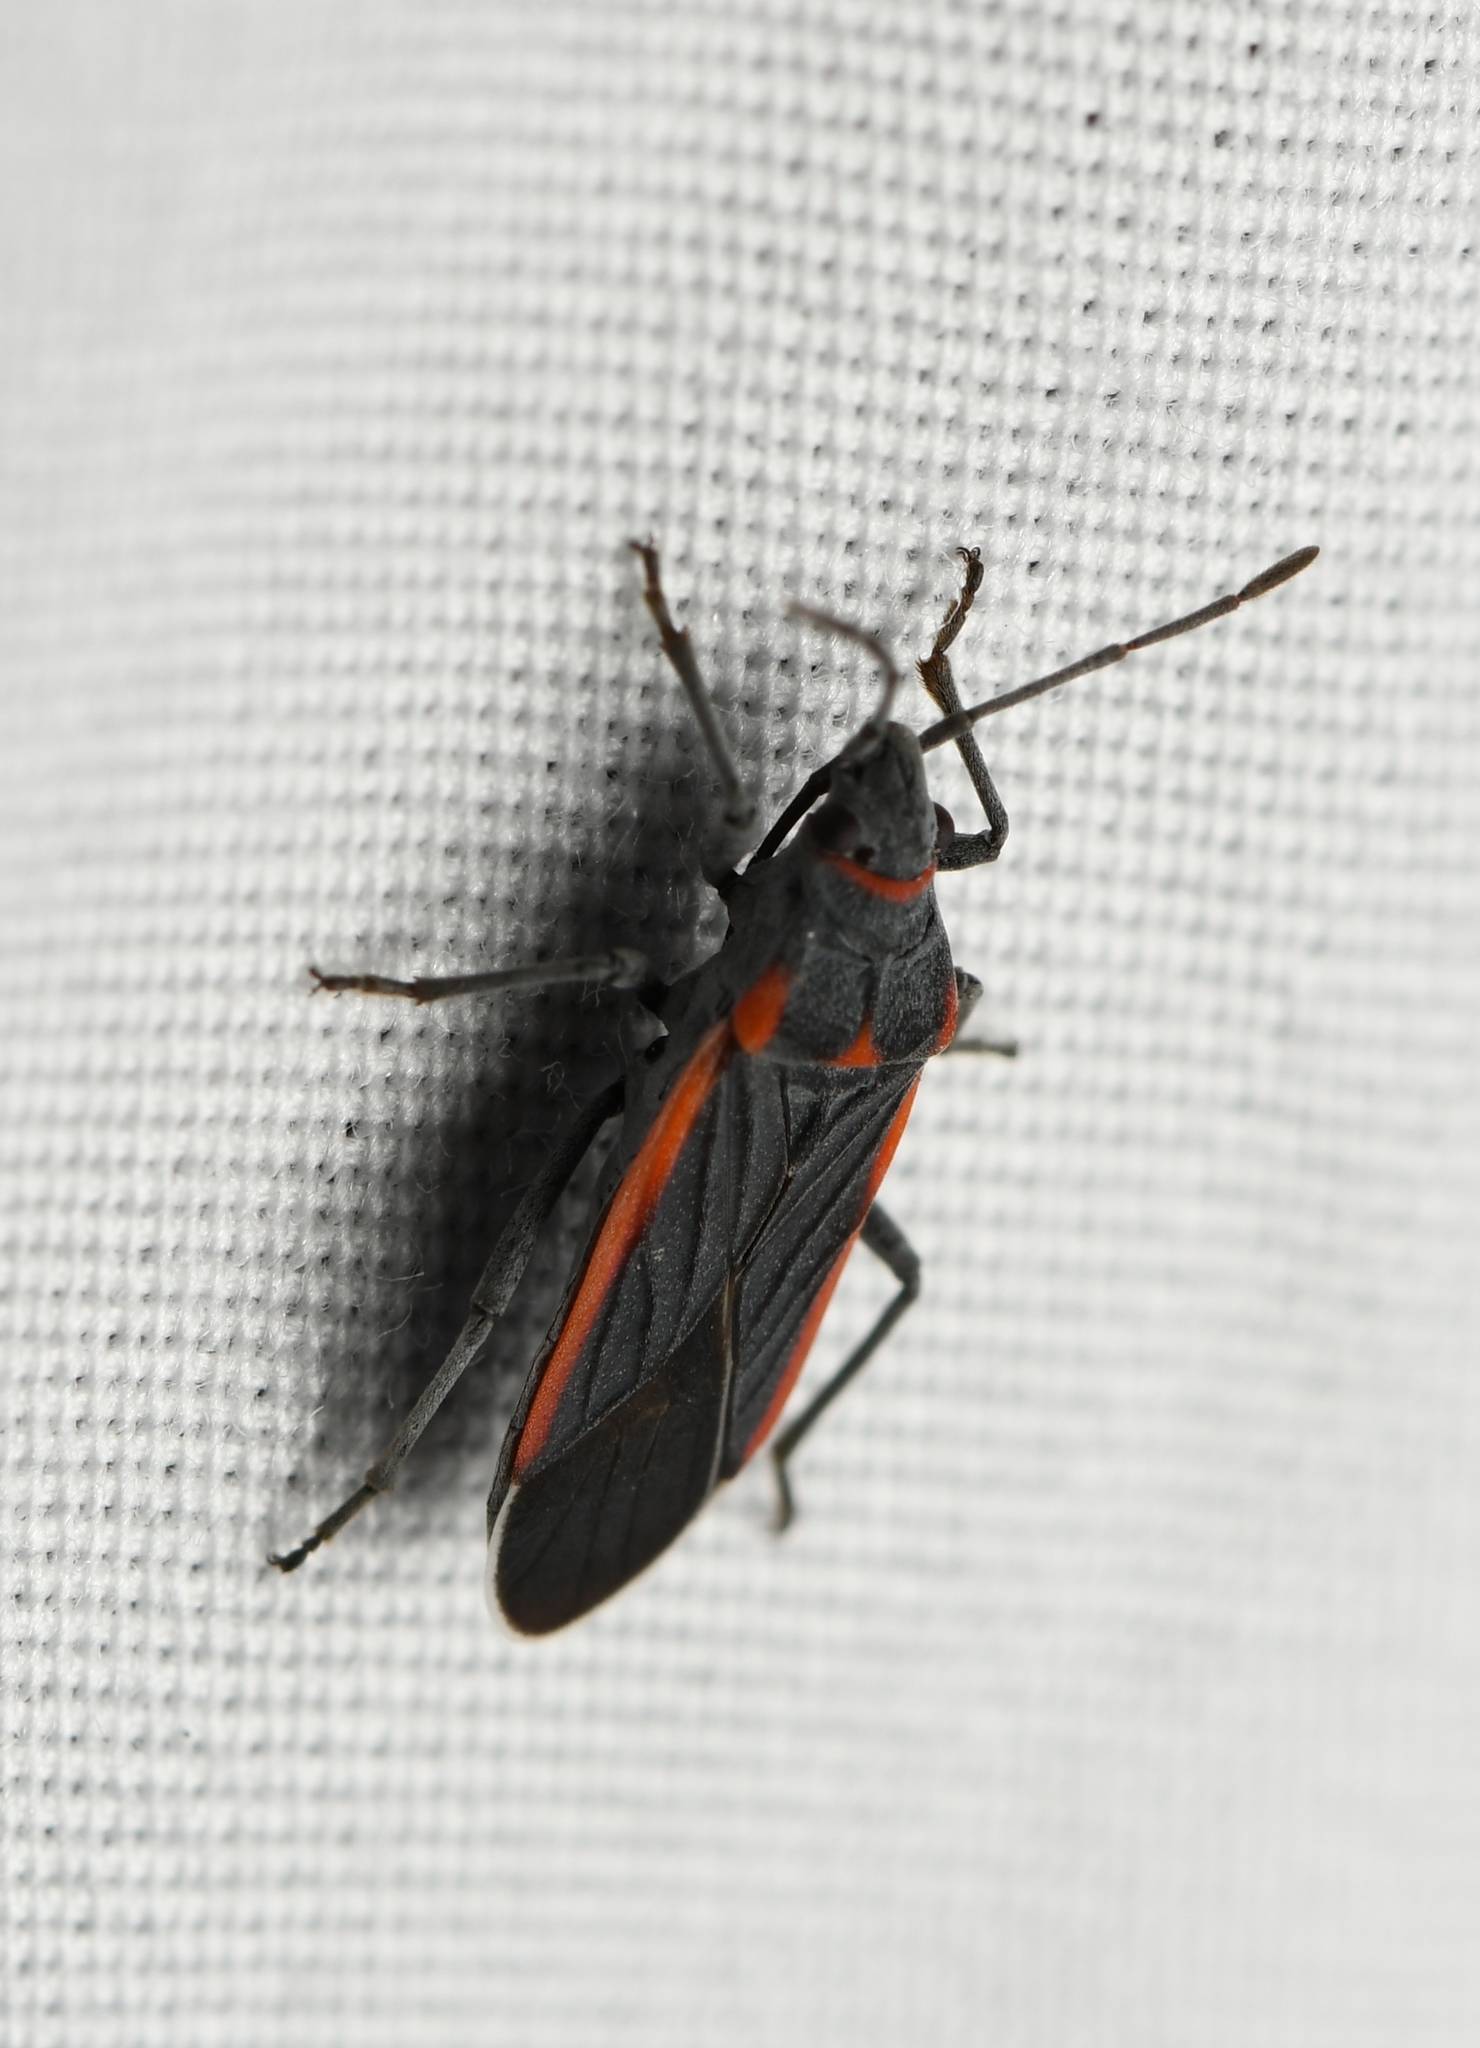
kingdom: Animalia
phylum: Arthropoda
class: Insecta
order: Hemiptera
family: Lygaeidae
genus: Melacoryphus
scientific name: Melacoryphus lateralis
